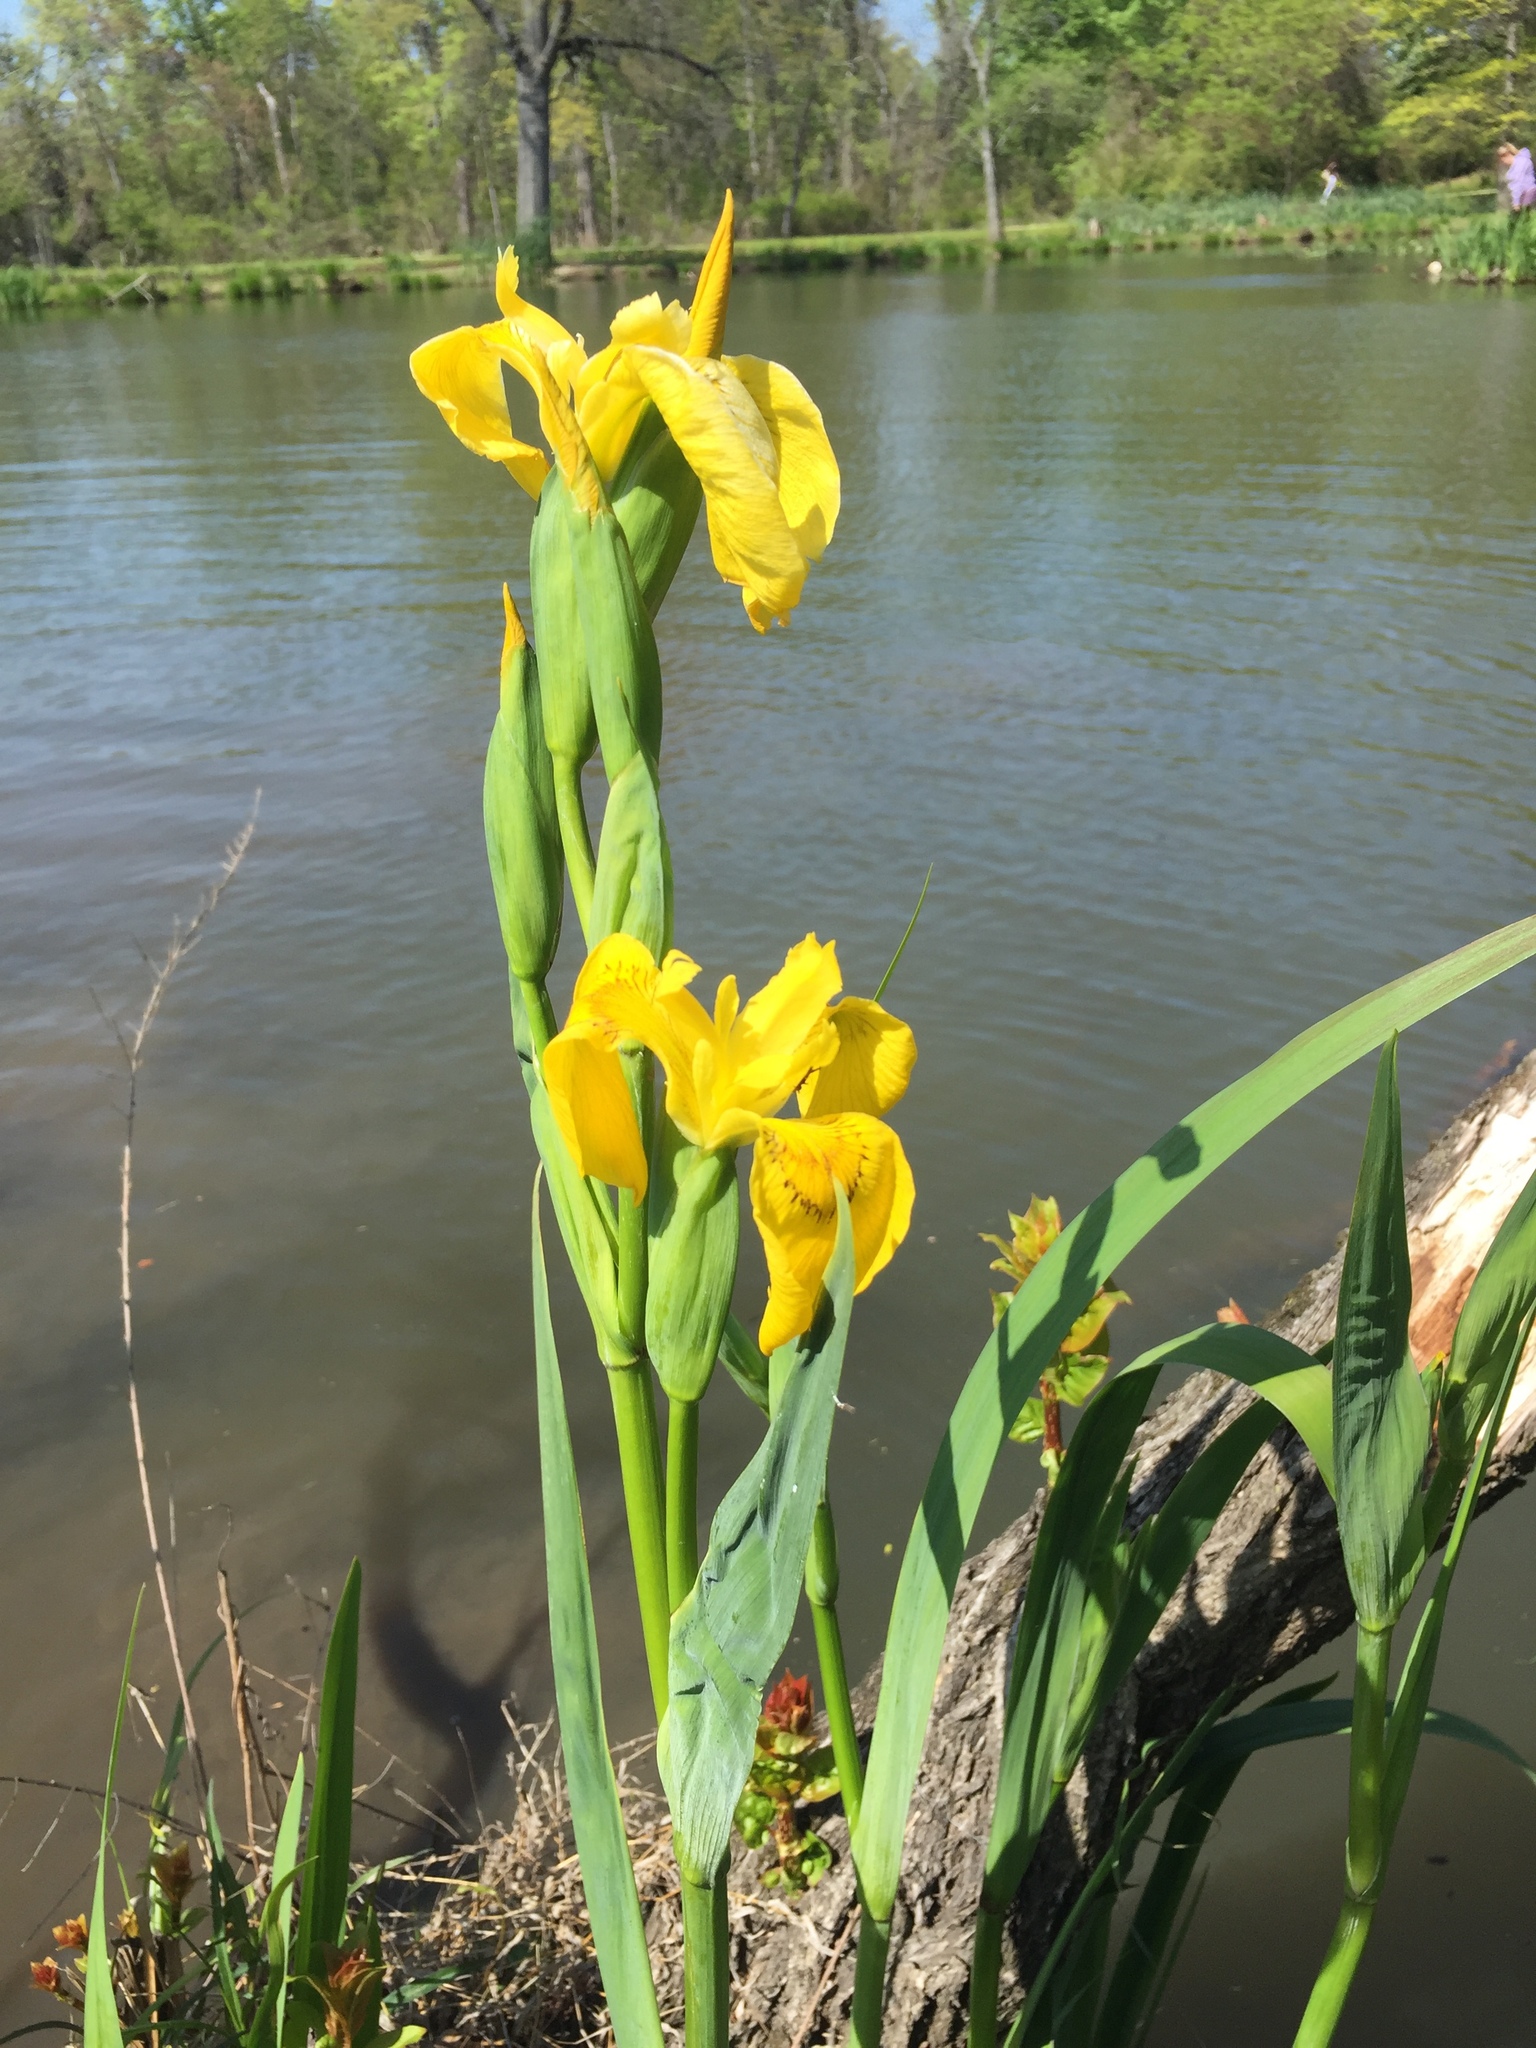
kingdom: Plantae
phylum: Tracheophyta
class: Liliopsida
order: Asparagales
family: Iridaceae
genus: Iris
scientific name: Iris pseudacorus
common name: Yellow flag
